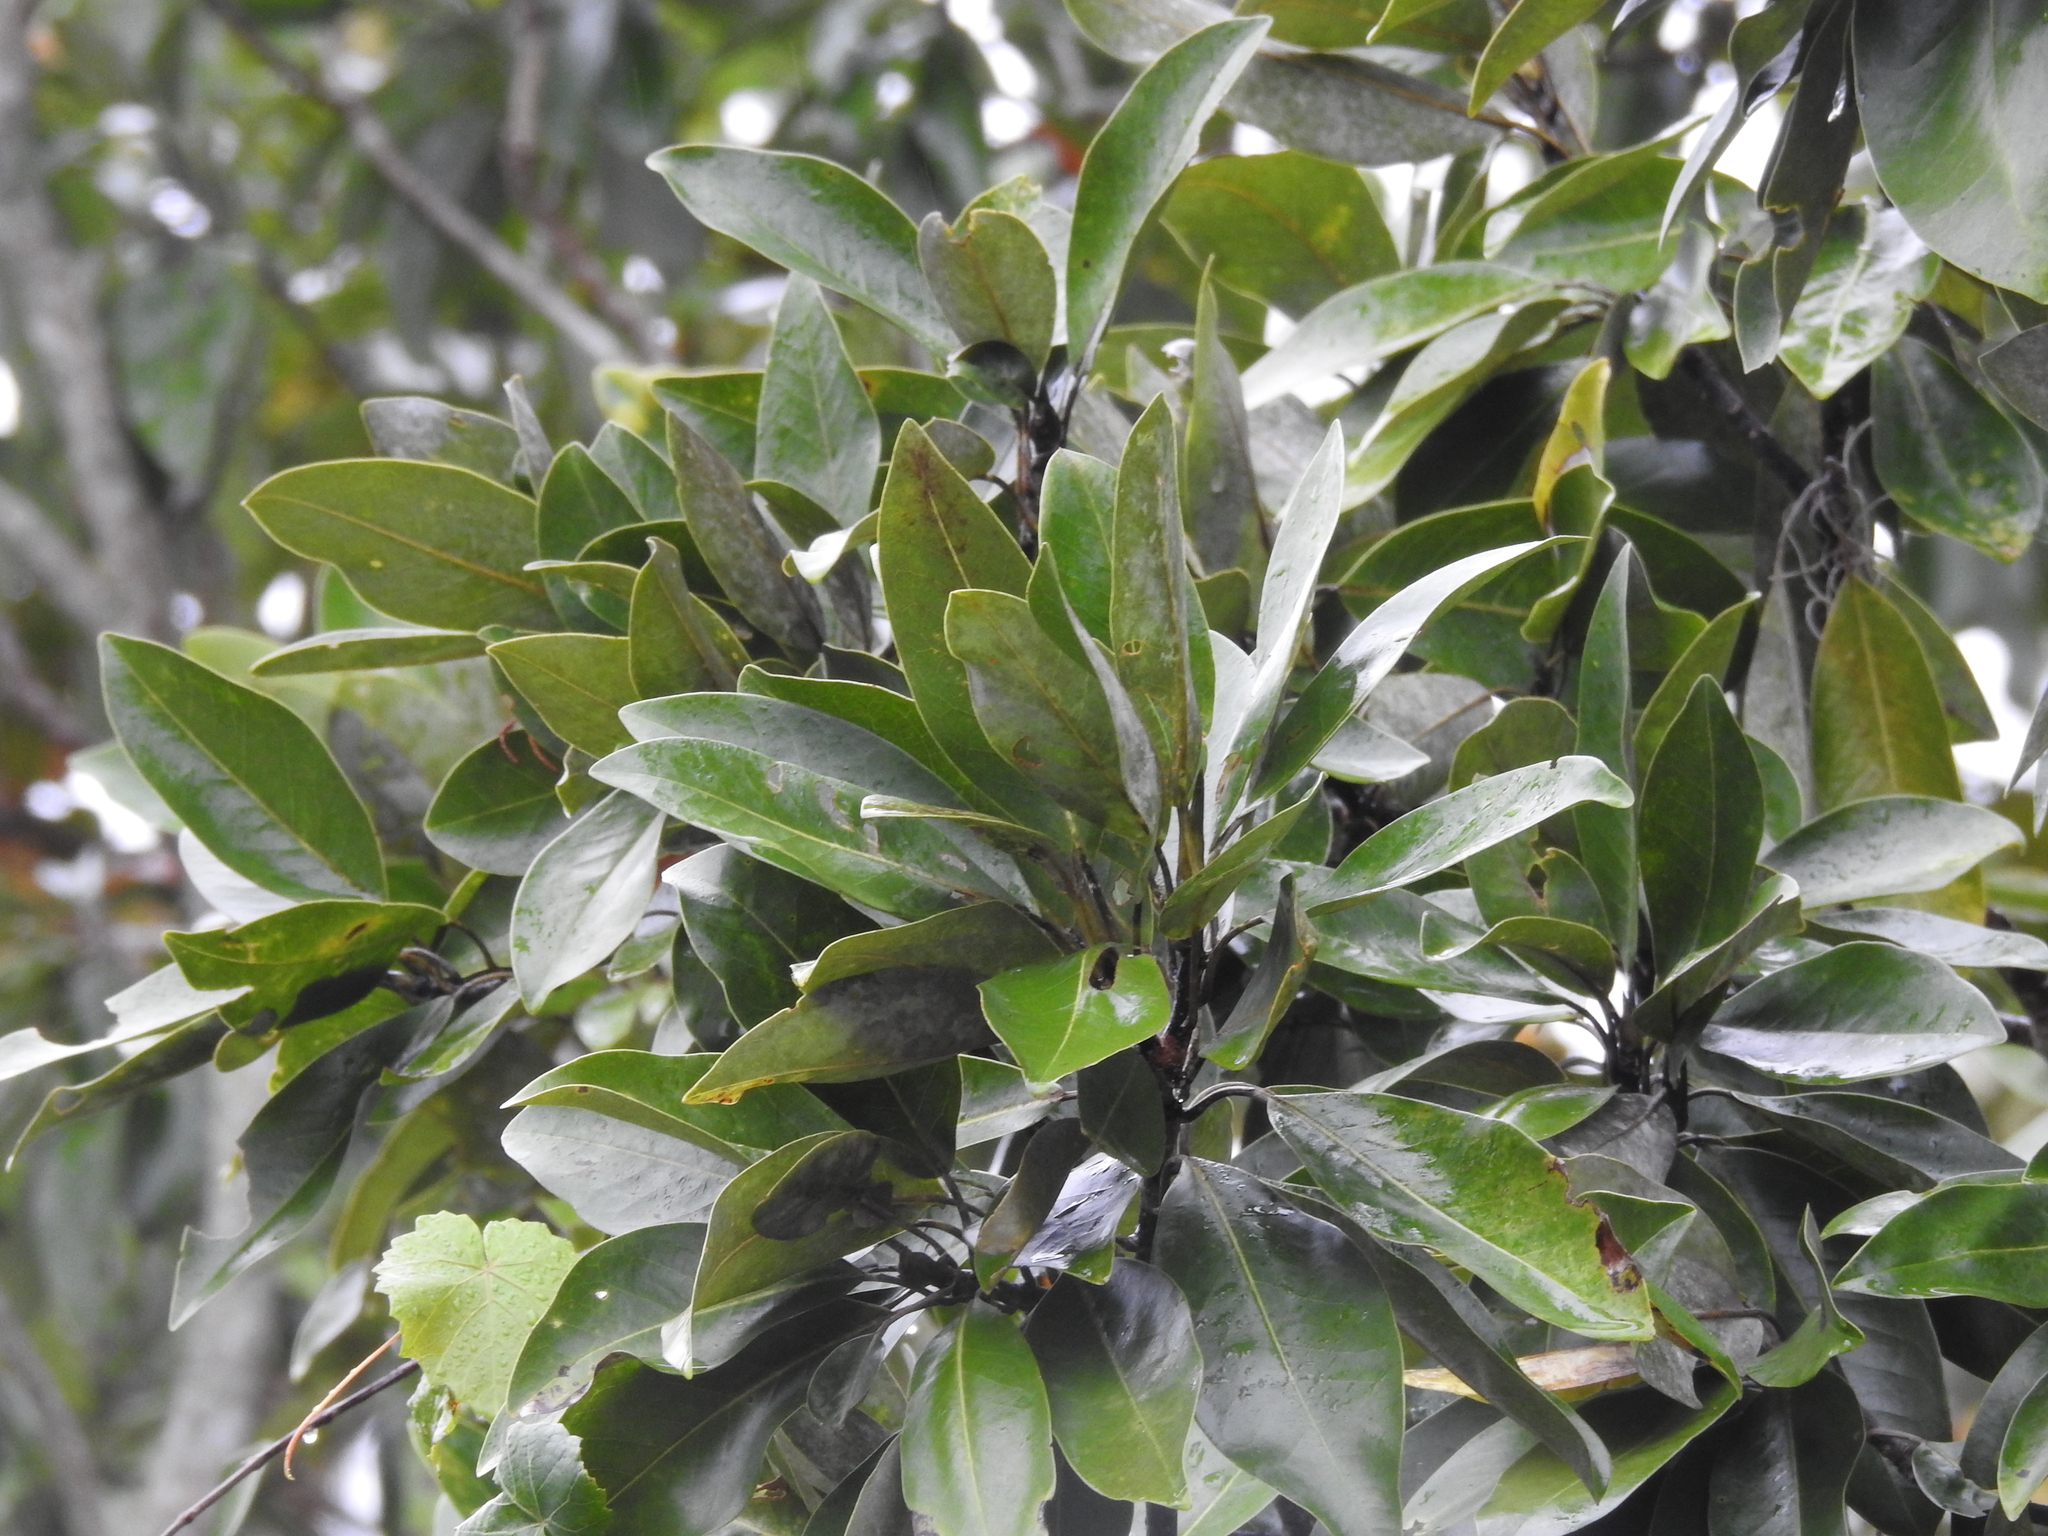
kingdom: Plantae
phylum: Tracheophyta
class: Magnoliopsida
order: Magnoliales
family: Magnoliaceae
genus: Magnolia
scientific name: Magnolia virginiana
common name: Swamp bay
